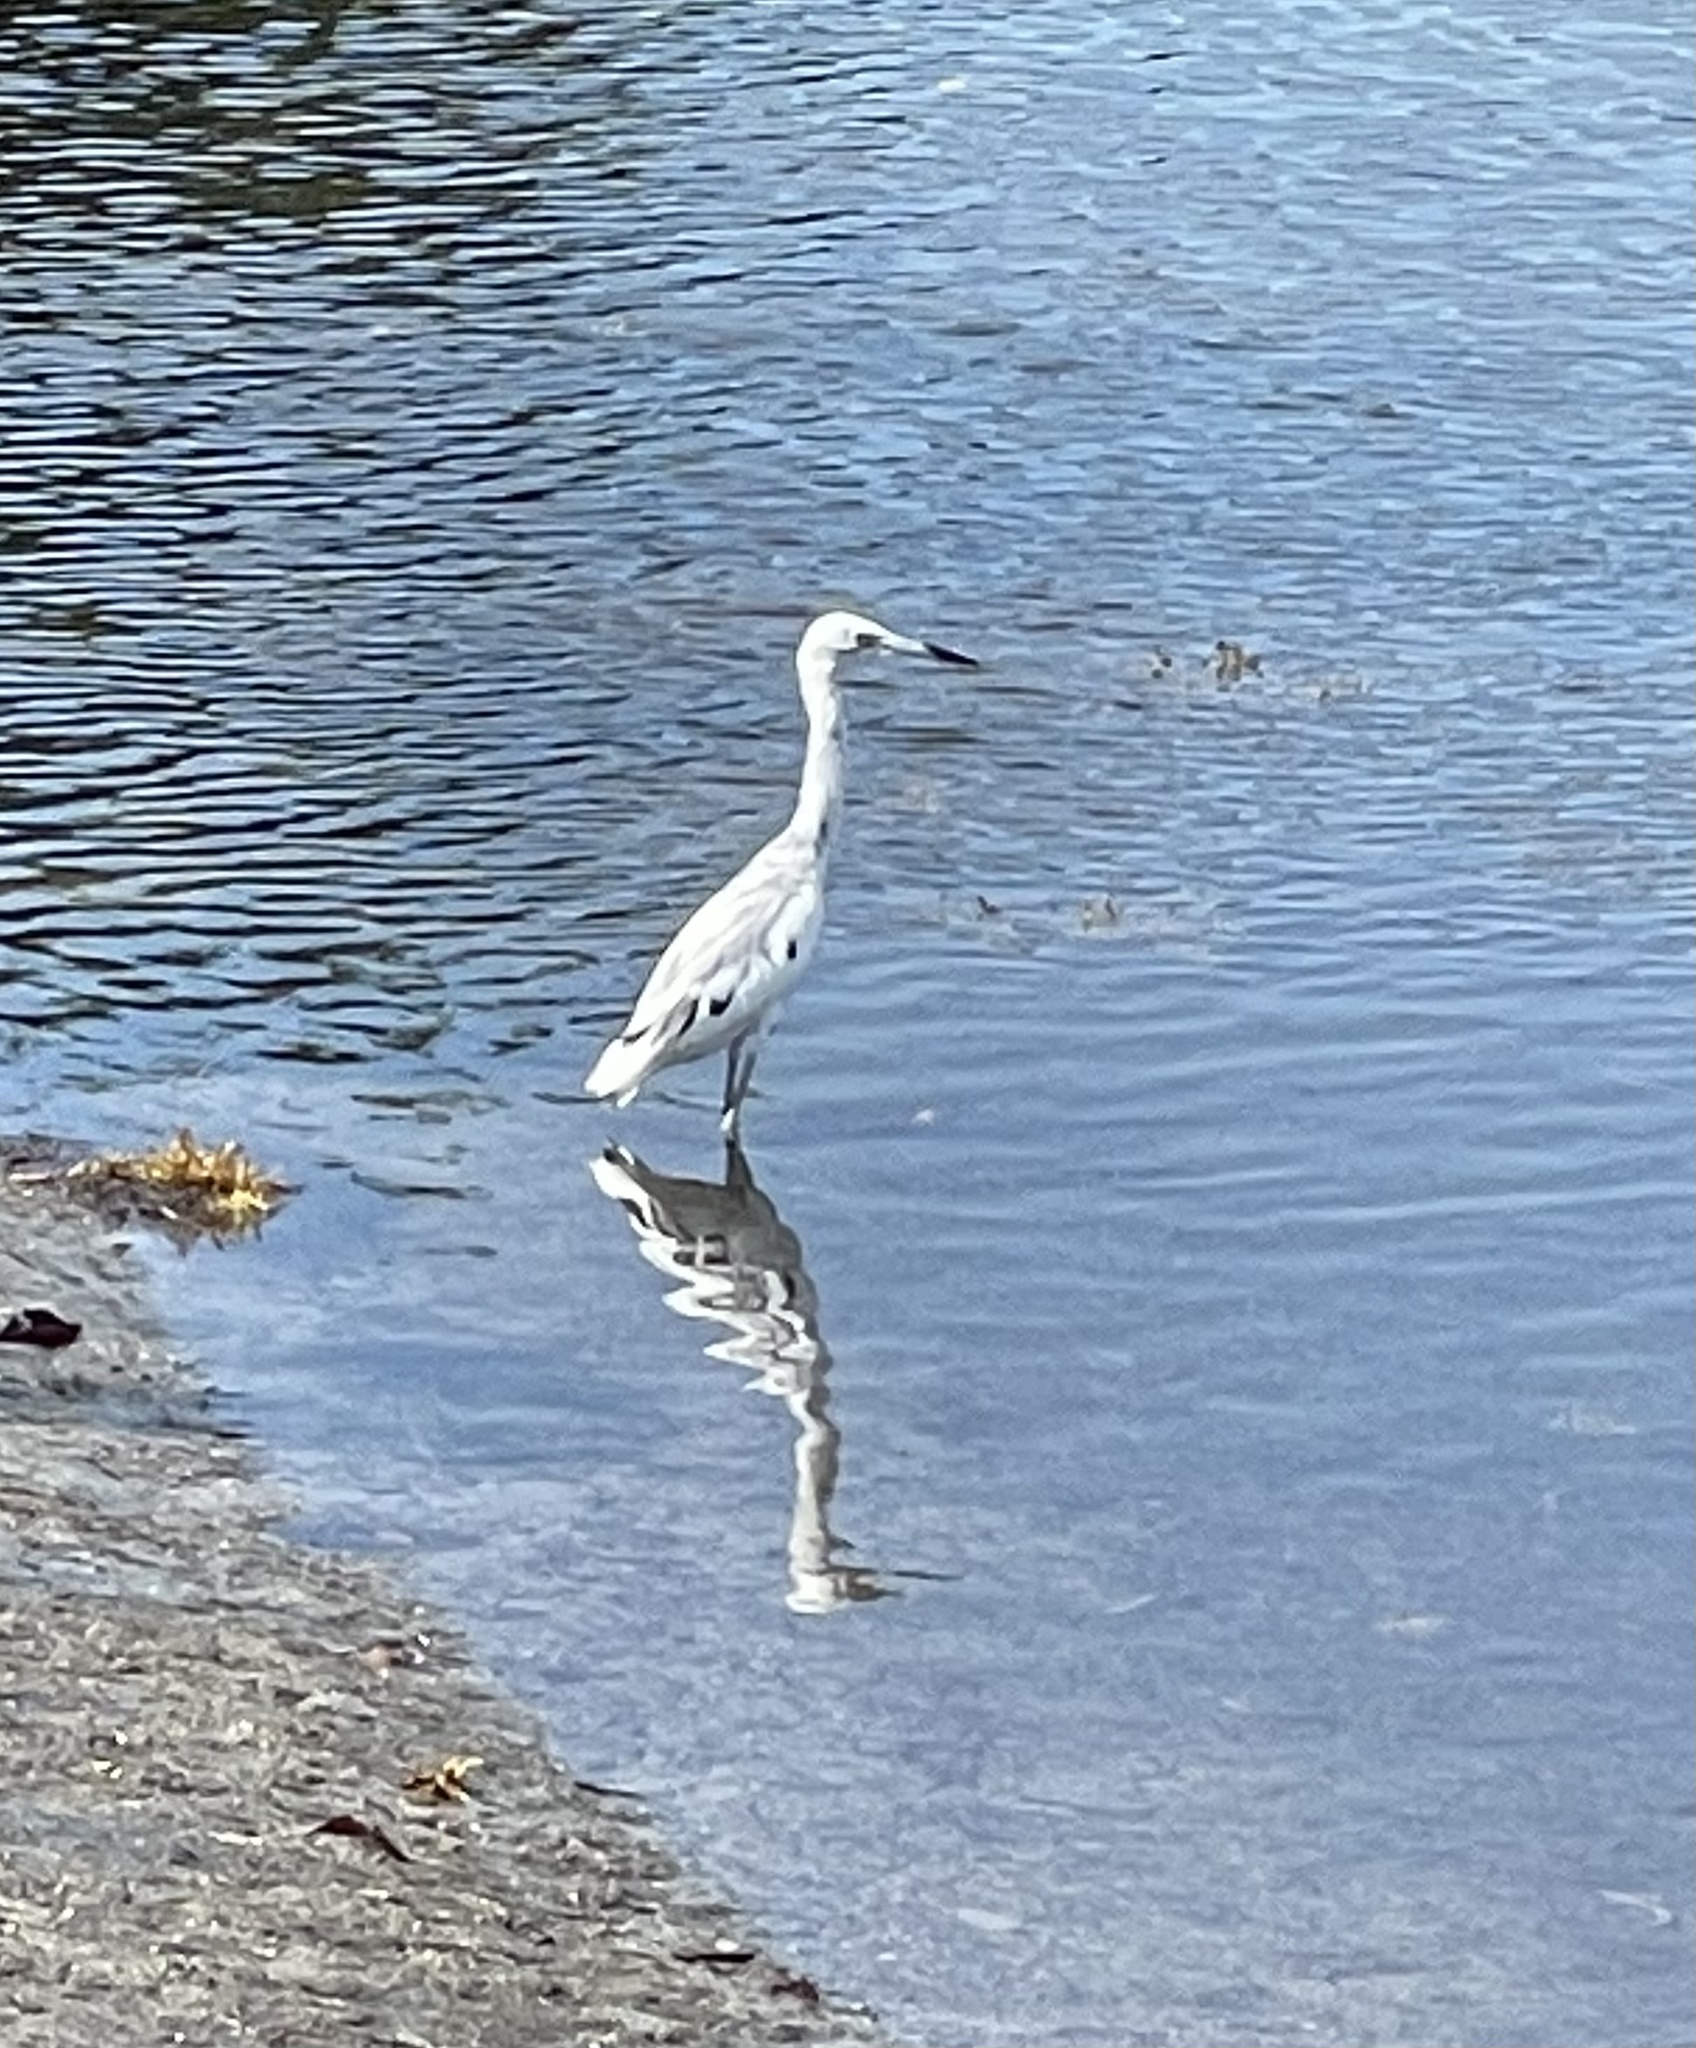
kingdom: Animalia
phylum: Chordata
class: Aves
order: Pelecaniformes
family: Ardeidae
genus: Egretta
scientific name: Egretta caerulea
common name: Little blue heron
